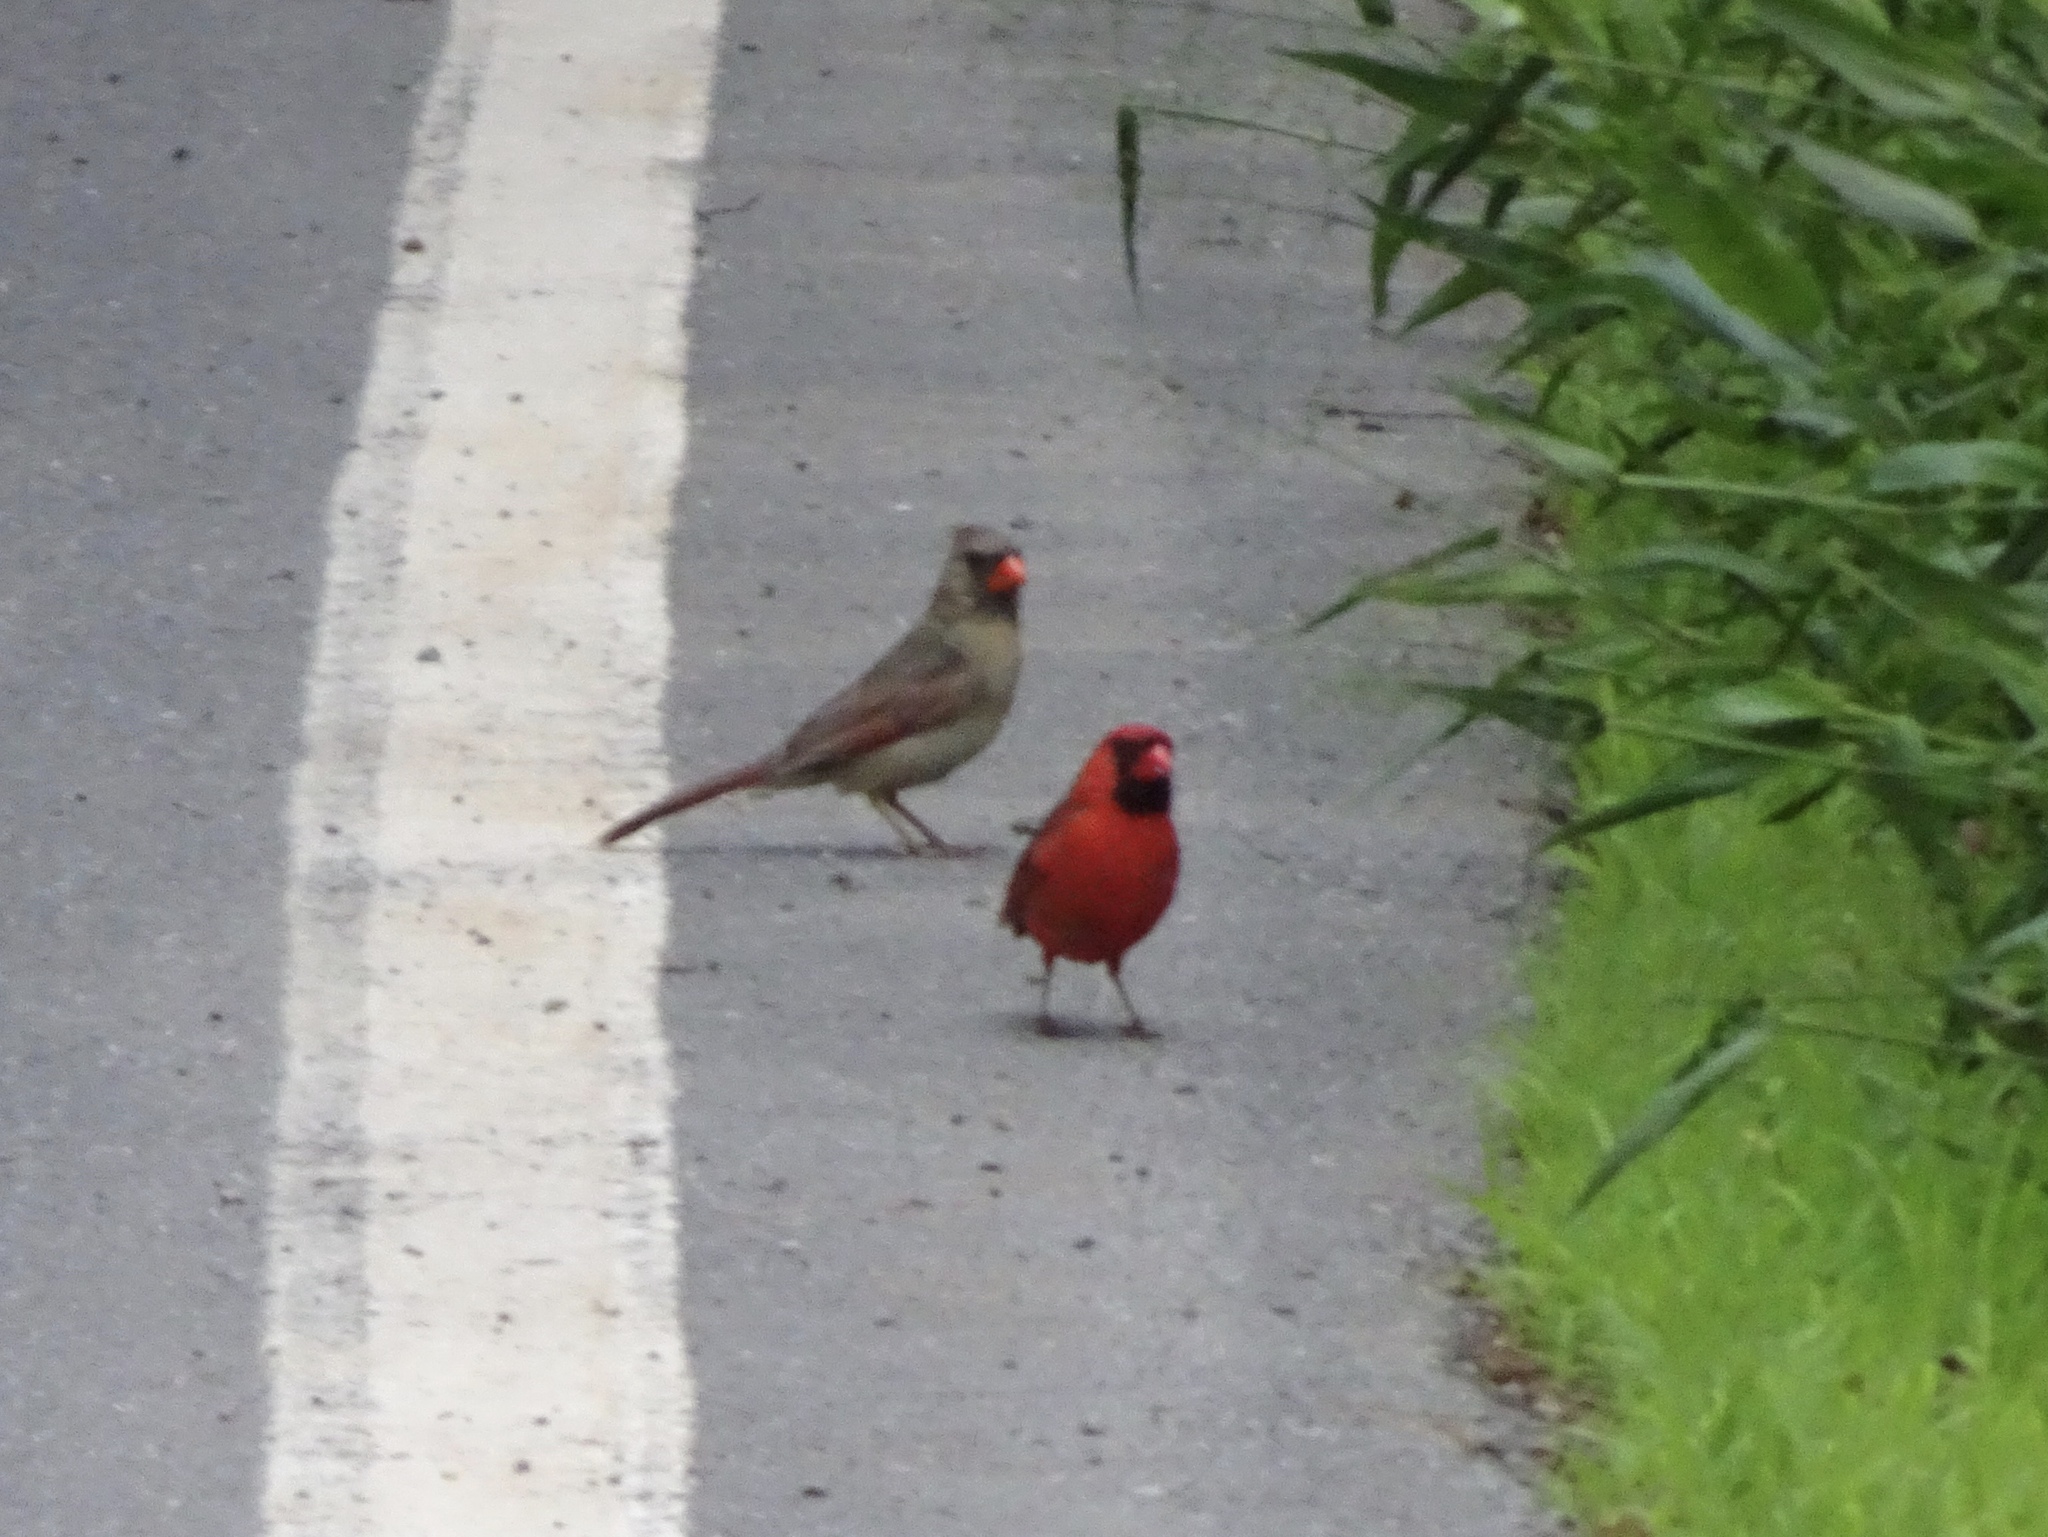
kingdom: Animalia
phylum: Chordata
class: Aves
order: Passeriformes
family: Cardinalidae
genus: Cardinalis
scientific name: Cardinalis cardinalis
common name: Northern cardinal
